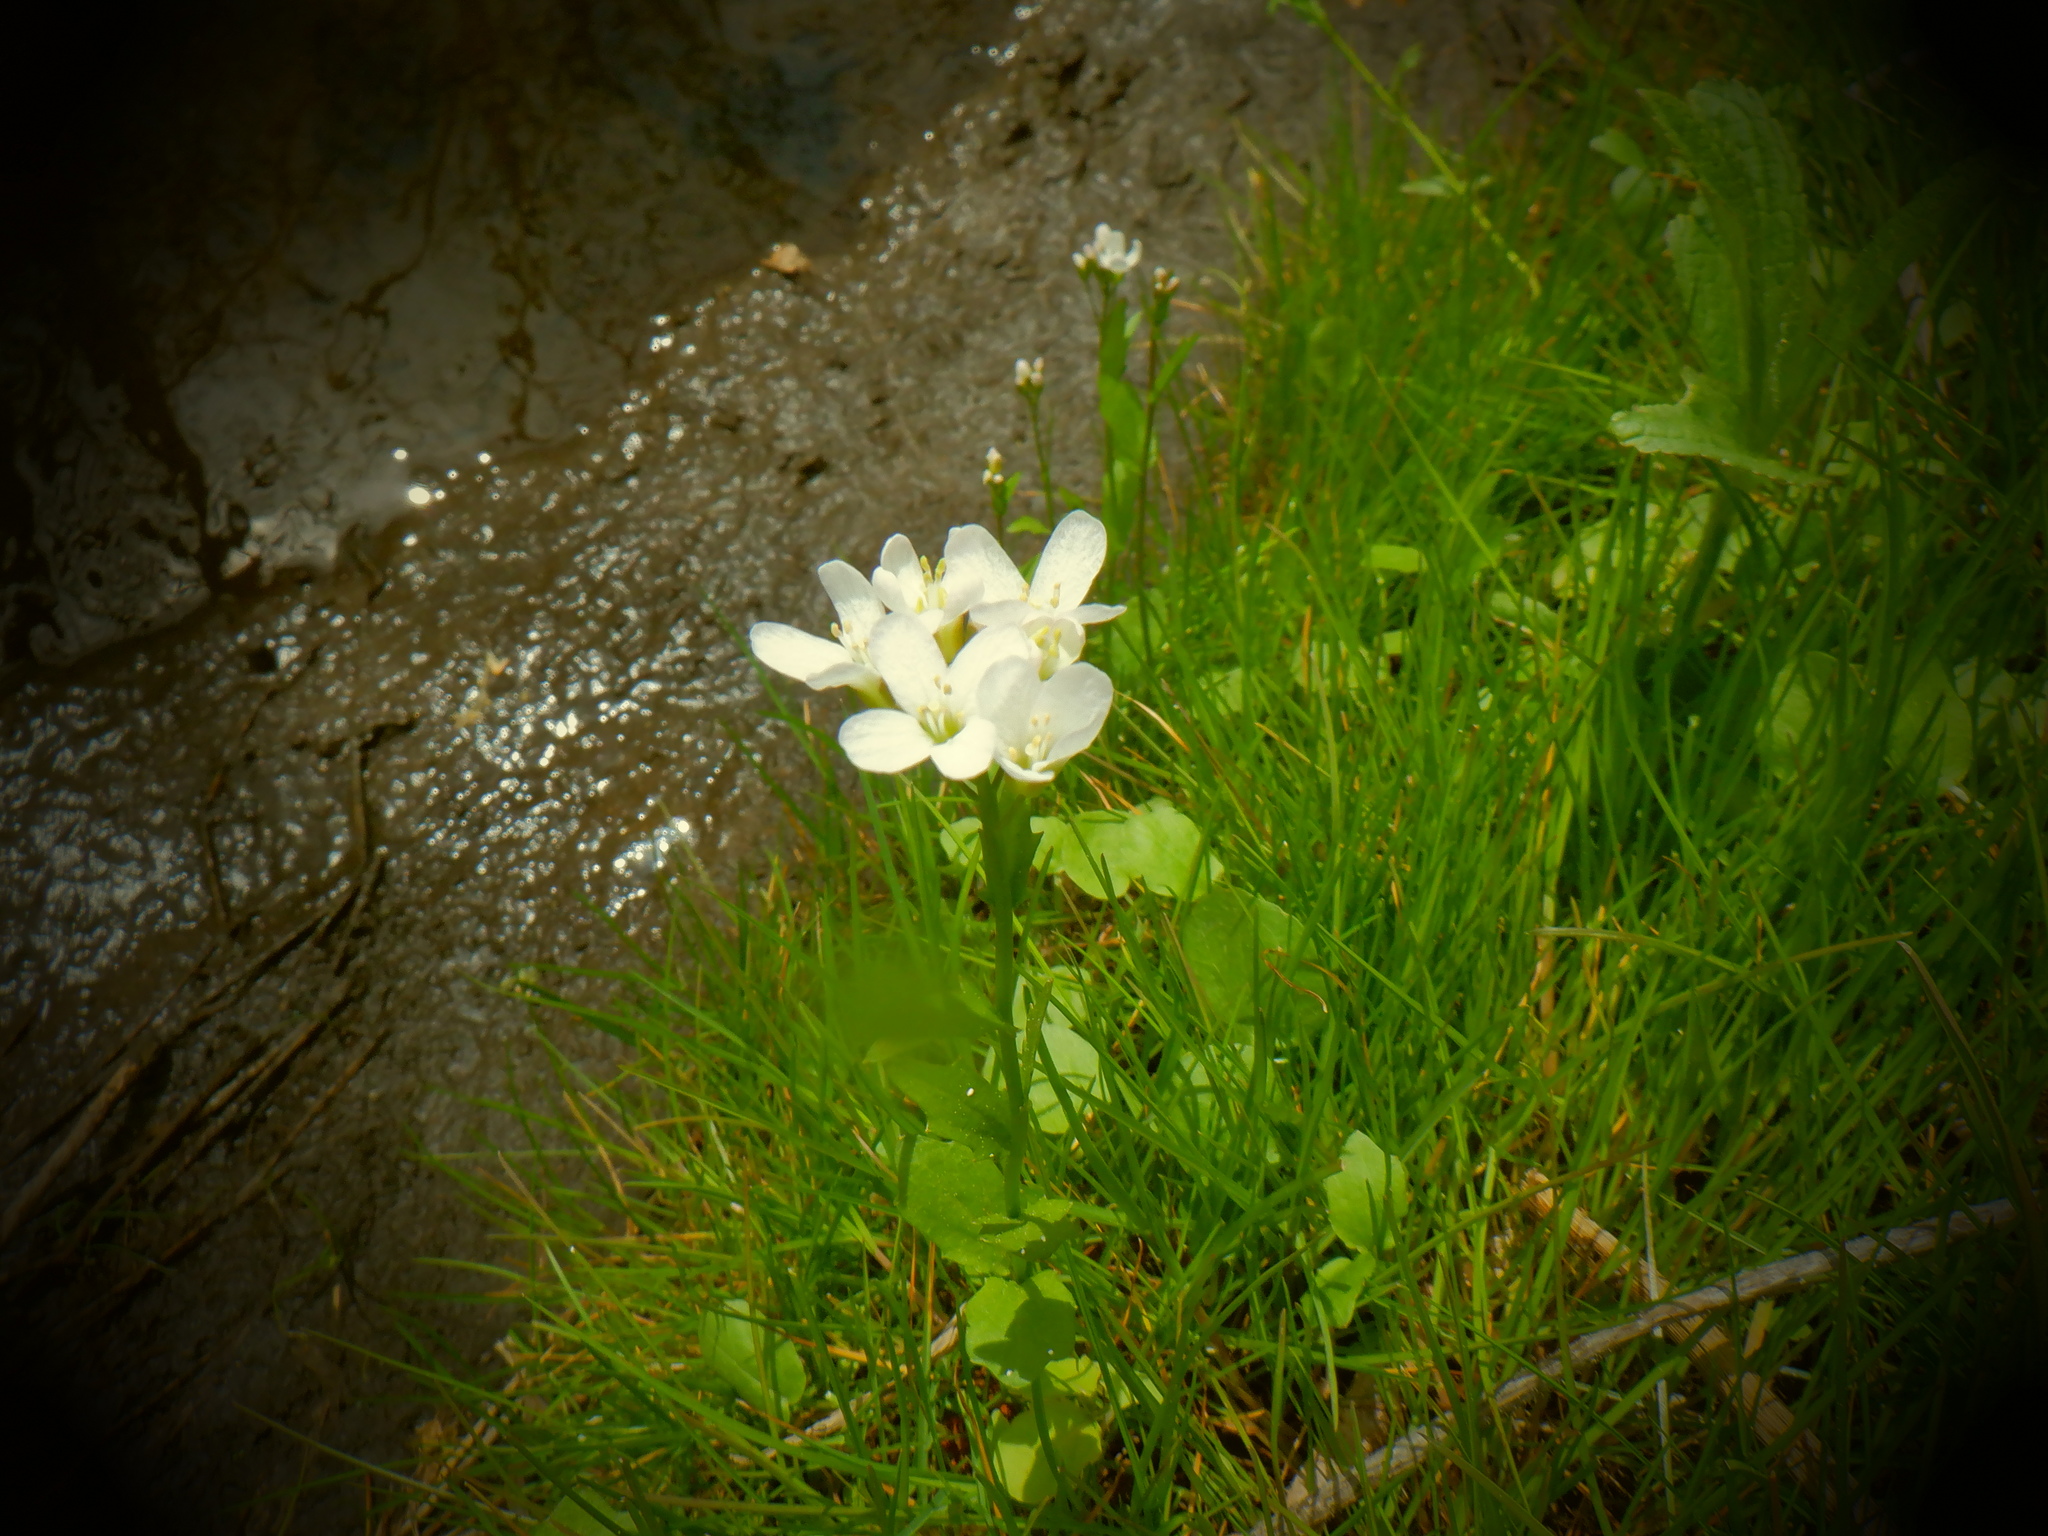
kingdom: Plantae
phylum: Tracheophyta
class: Magnoliopsida
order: Brassicales
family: Brassicaceae
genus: Cardamine
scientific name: Cardamine bulbosa
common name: Spring cress
